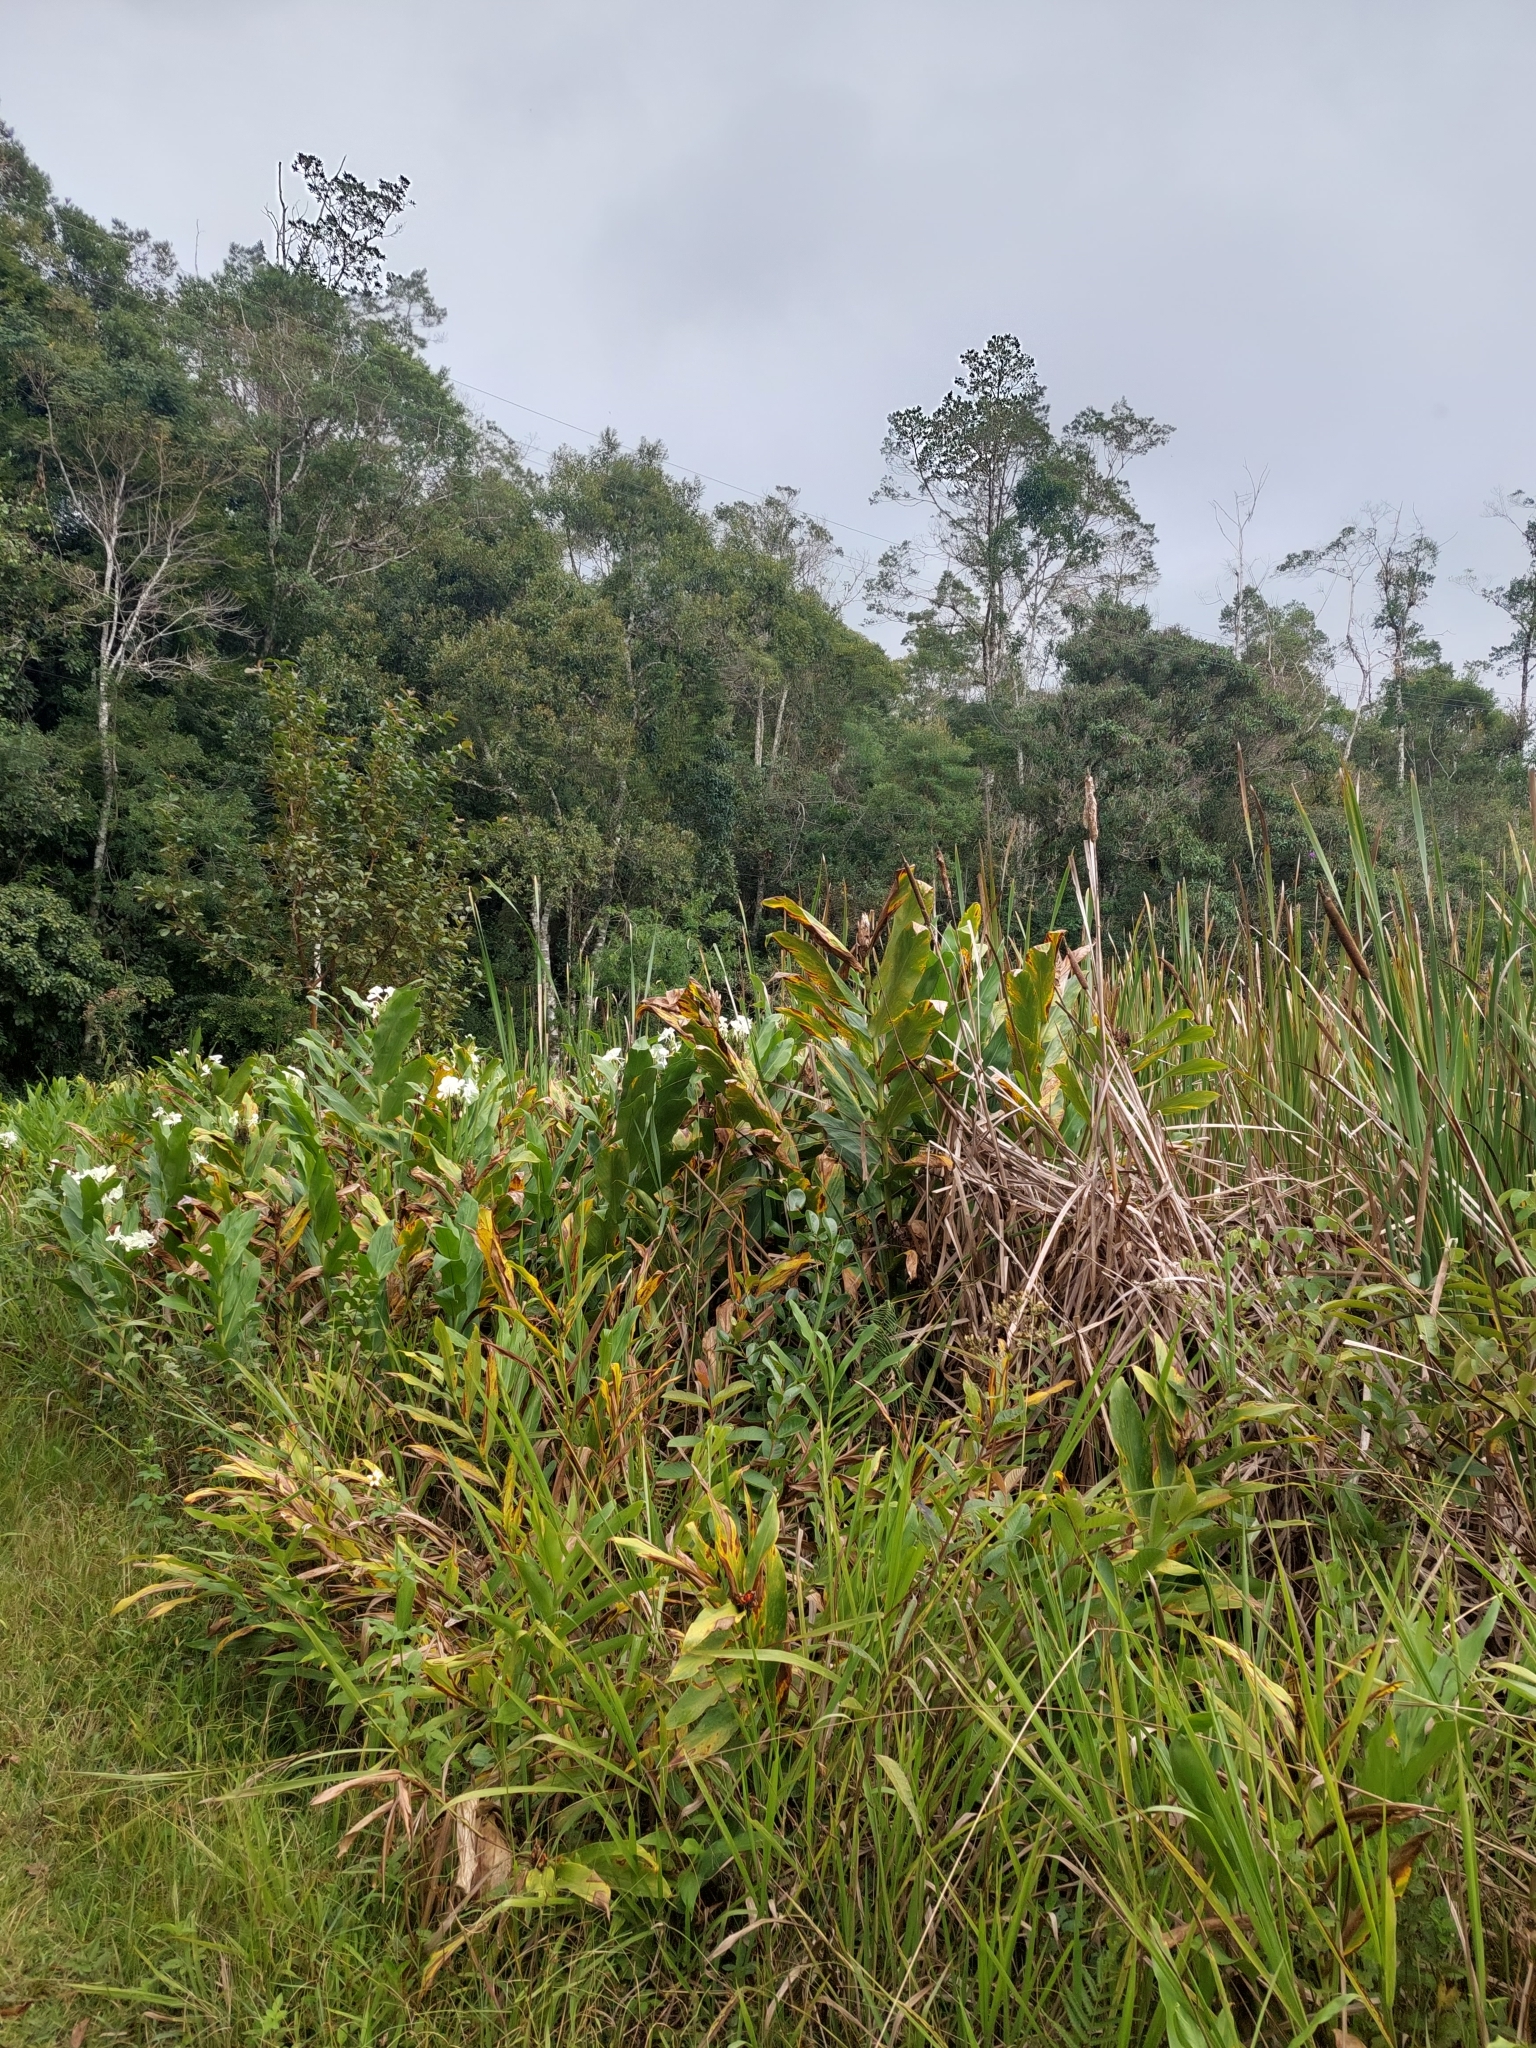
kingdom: Plantae
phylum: Tracheophyta
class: Liliopsida
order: Zingiberales
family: Zingiberaceae
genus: Hedychium
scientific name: Hedychium coronarium
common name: White garland-lily
